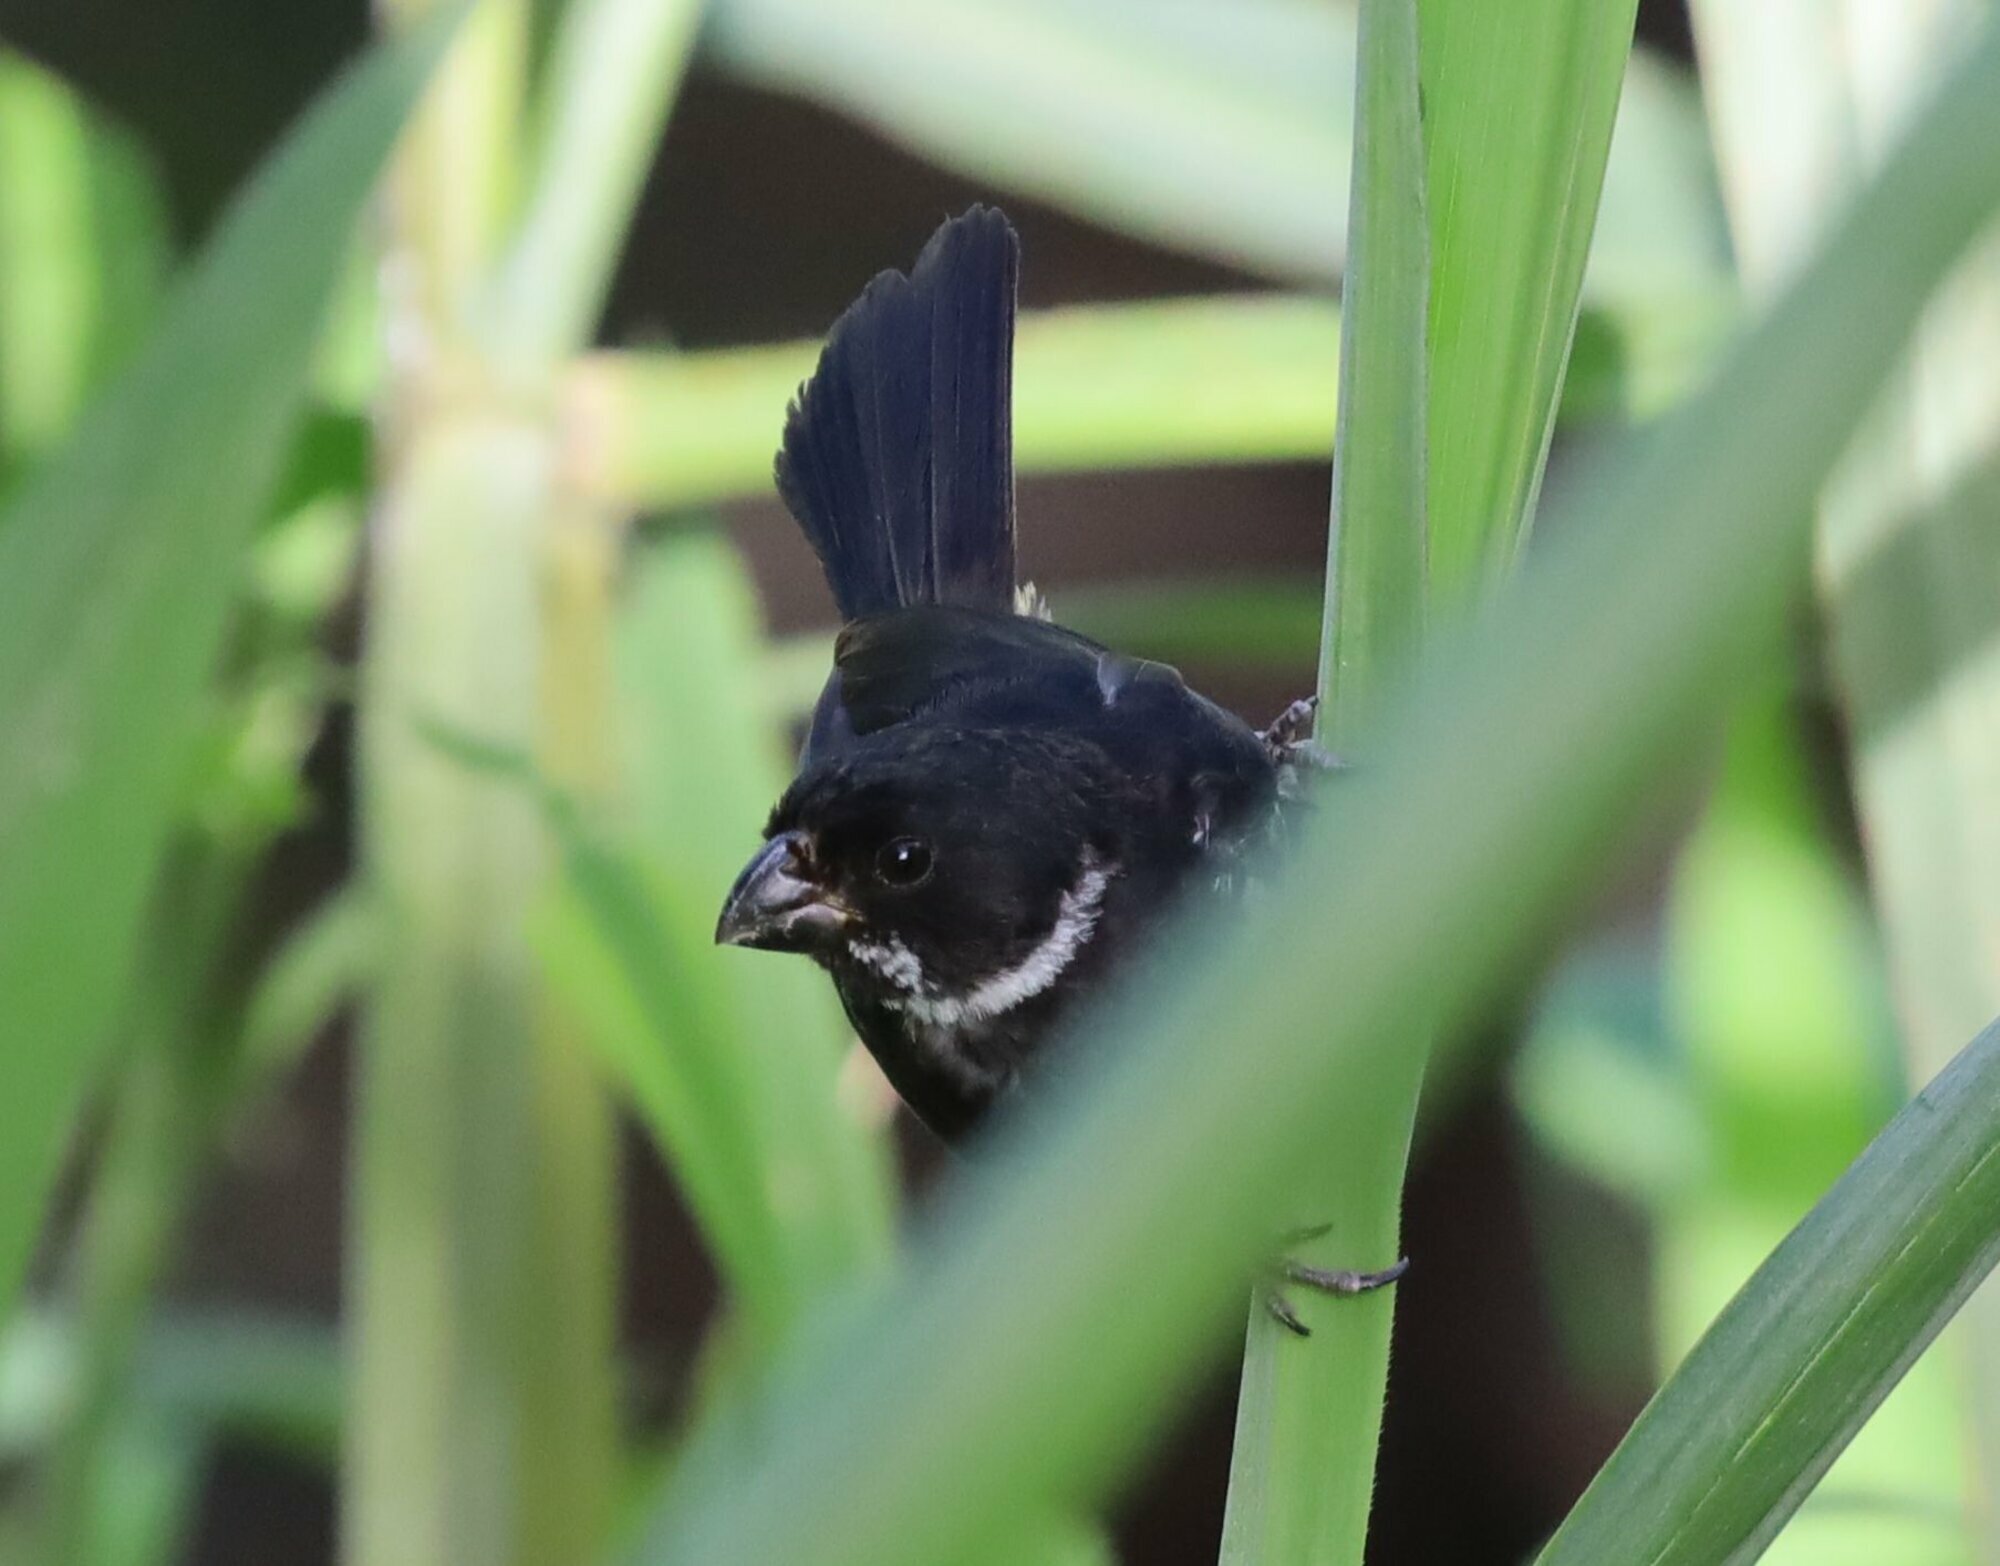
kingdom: Animalia
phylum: Chordata
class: Aves
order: Passeriformes
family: Thraupidae
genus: Sporophila
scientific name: Sporophila corvina
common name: Variable seedeater
